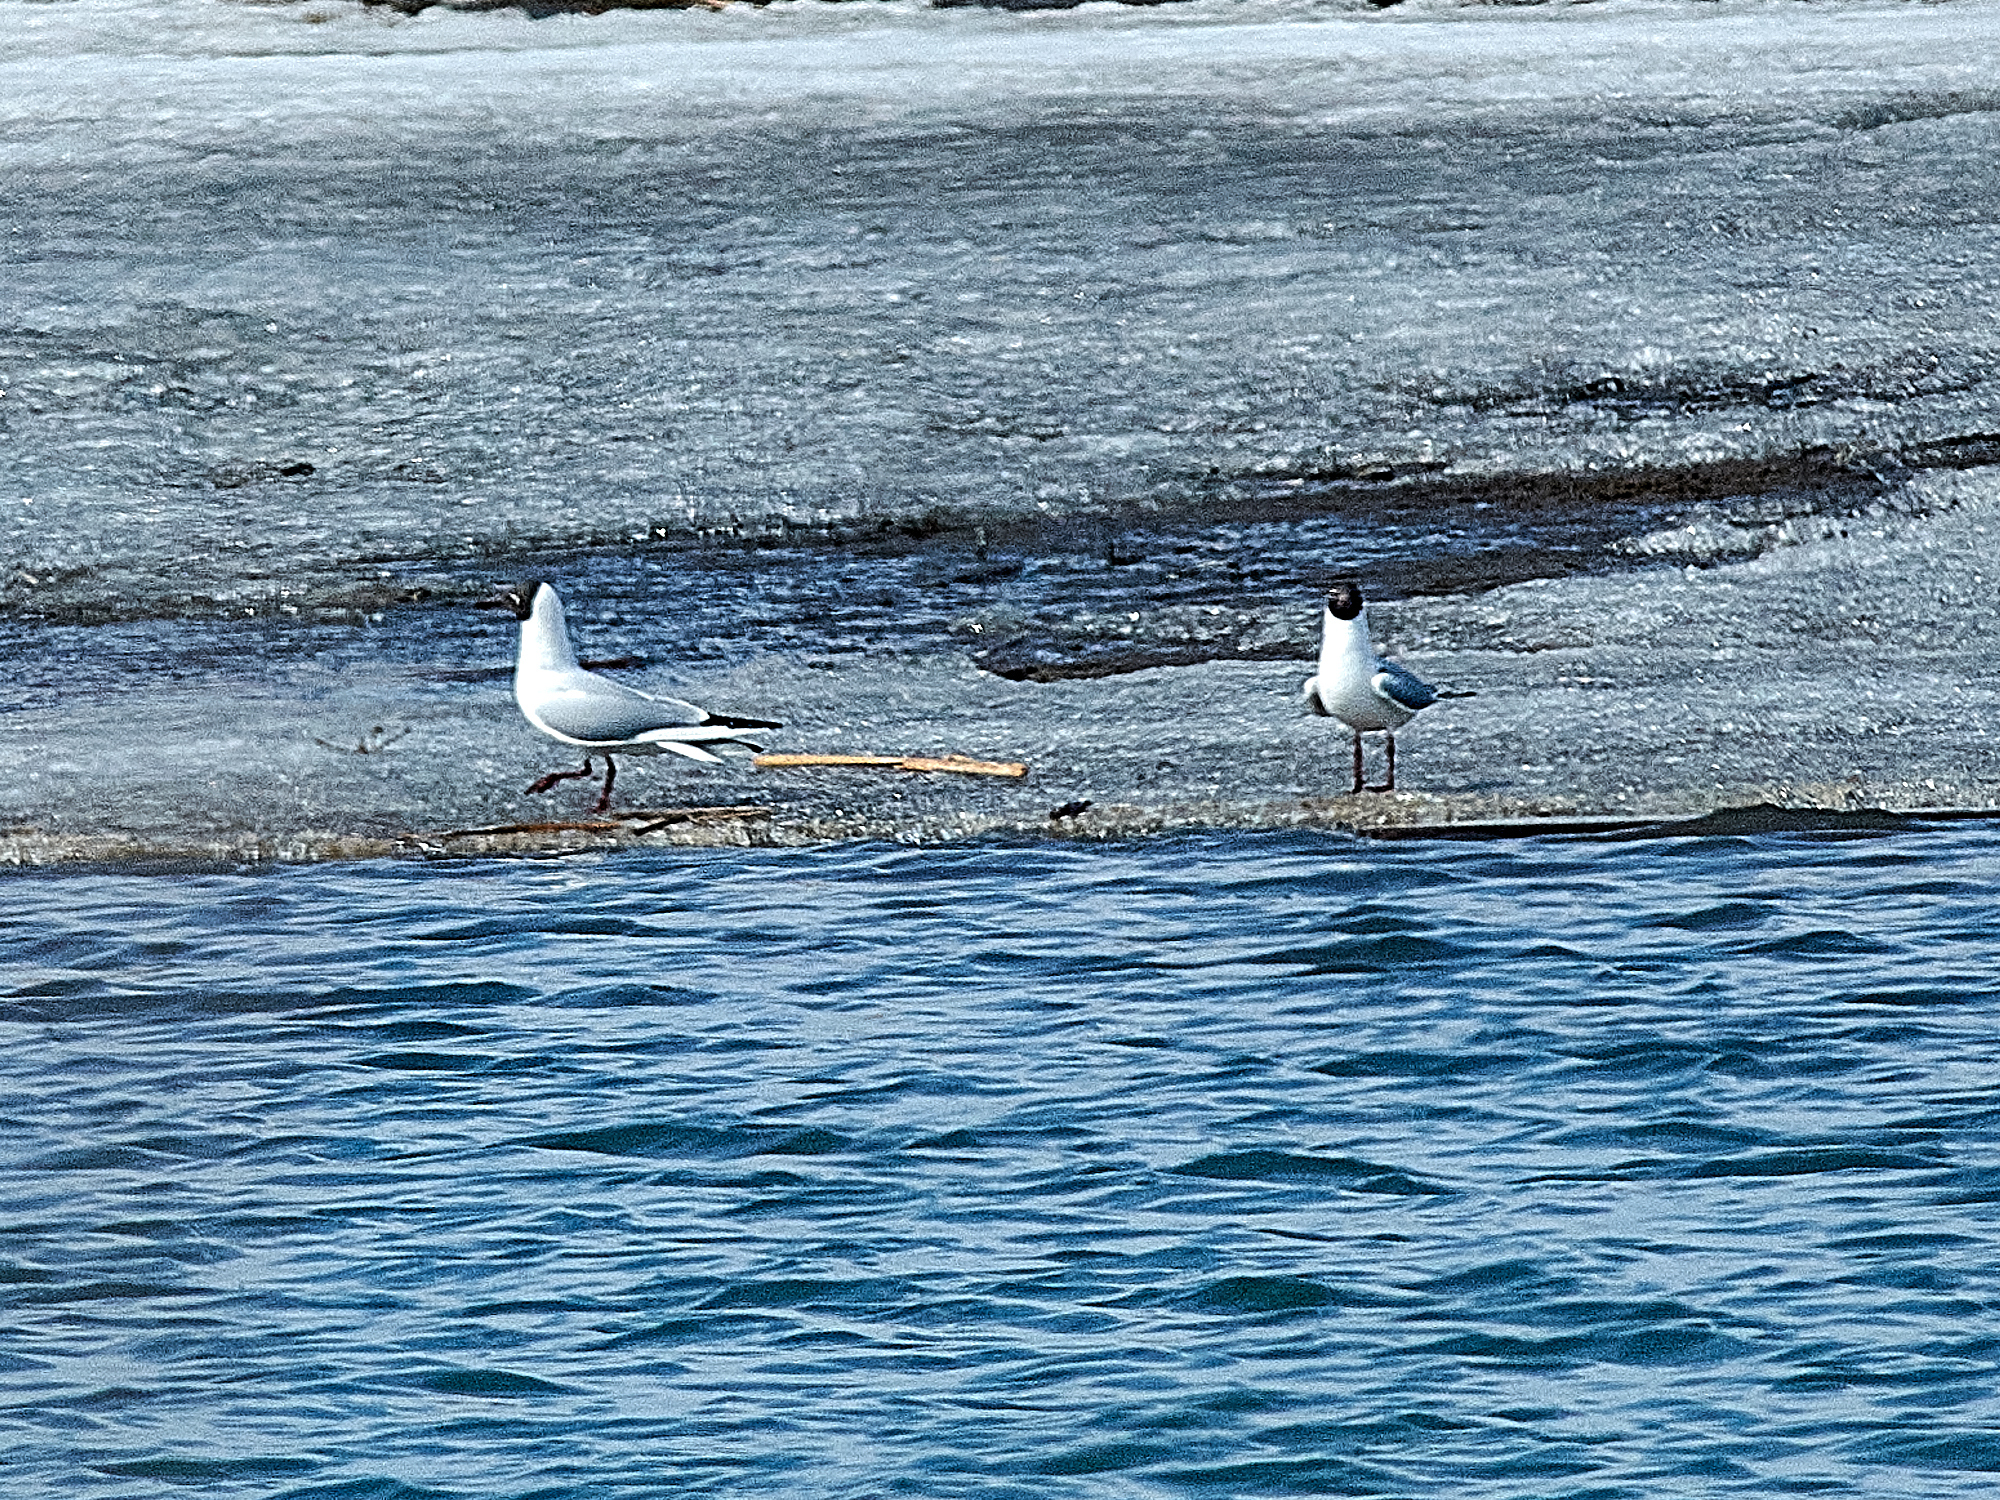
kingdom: Animalia
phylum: Chordata
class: Aves
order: Charadriiformes
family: Laridae
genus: Chroicocephalus
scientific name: Chroicocephalus ridibundus
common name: Black-headed gull
